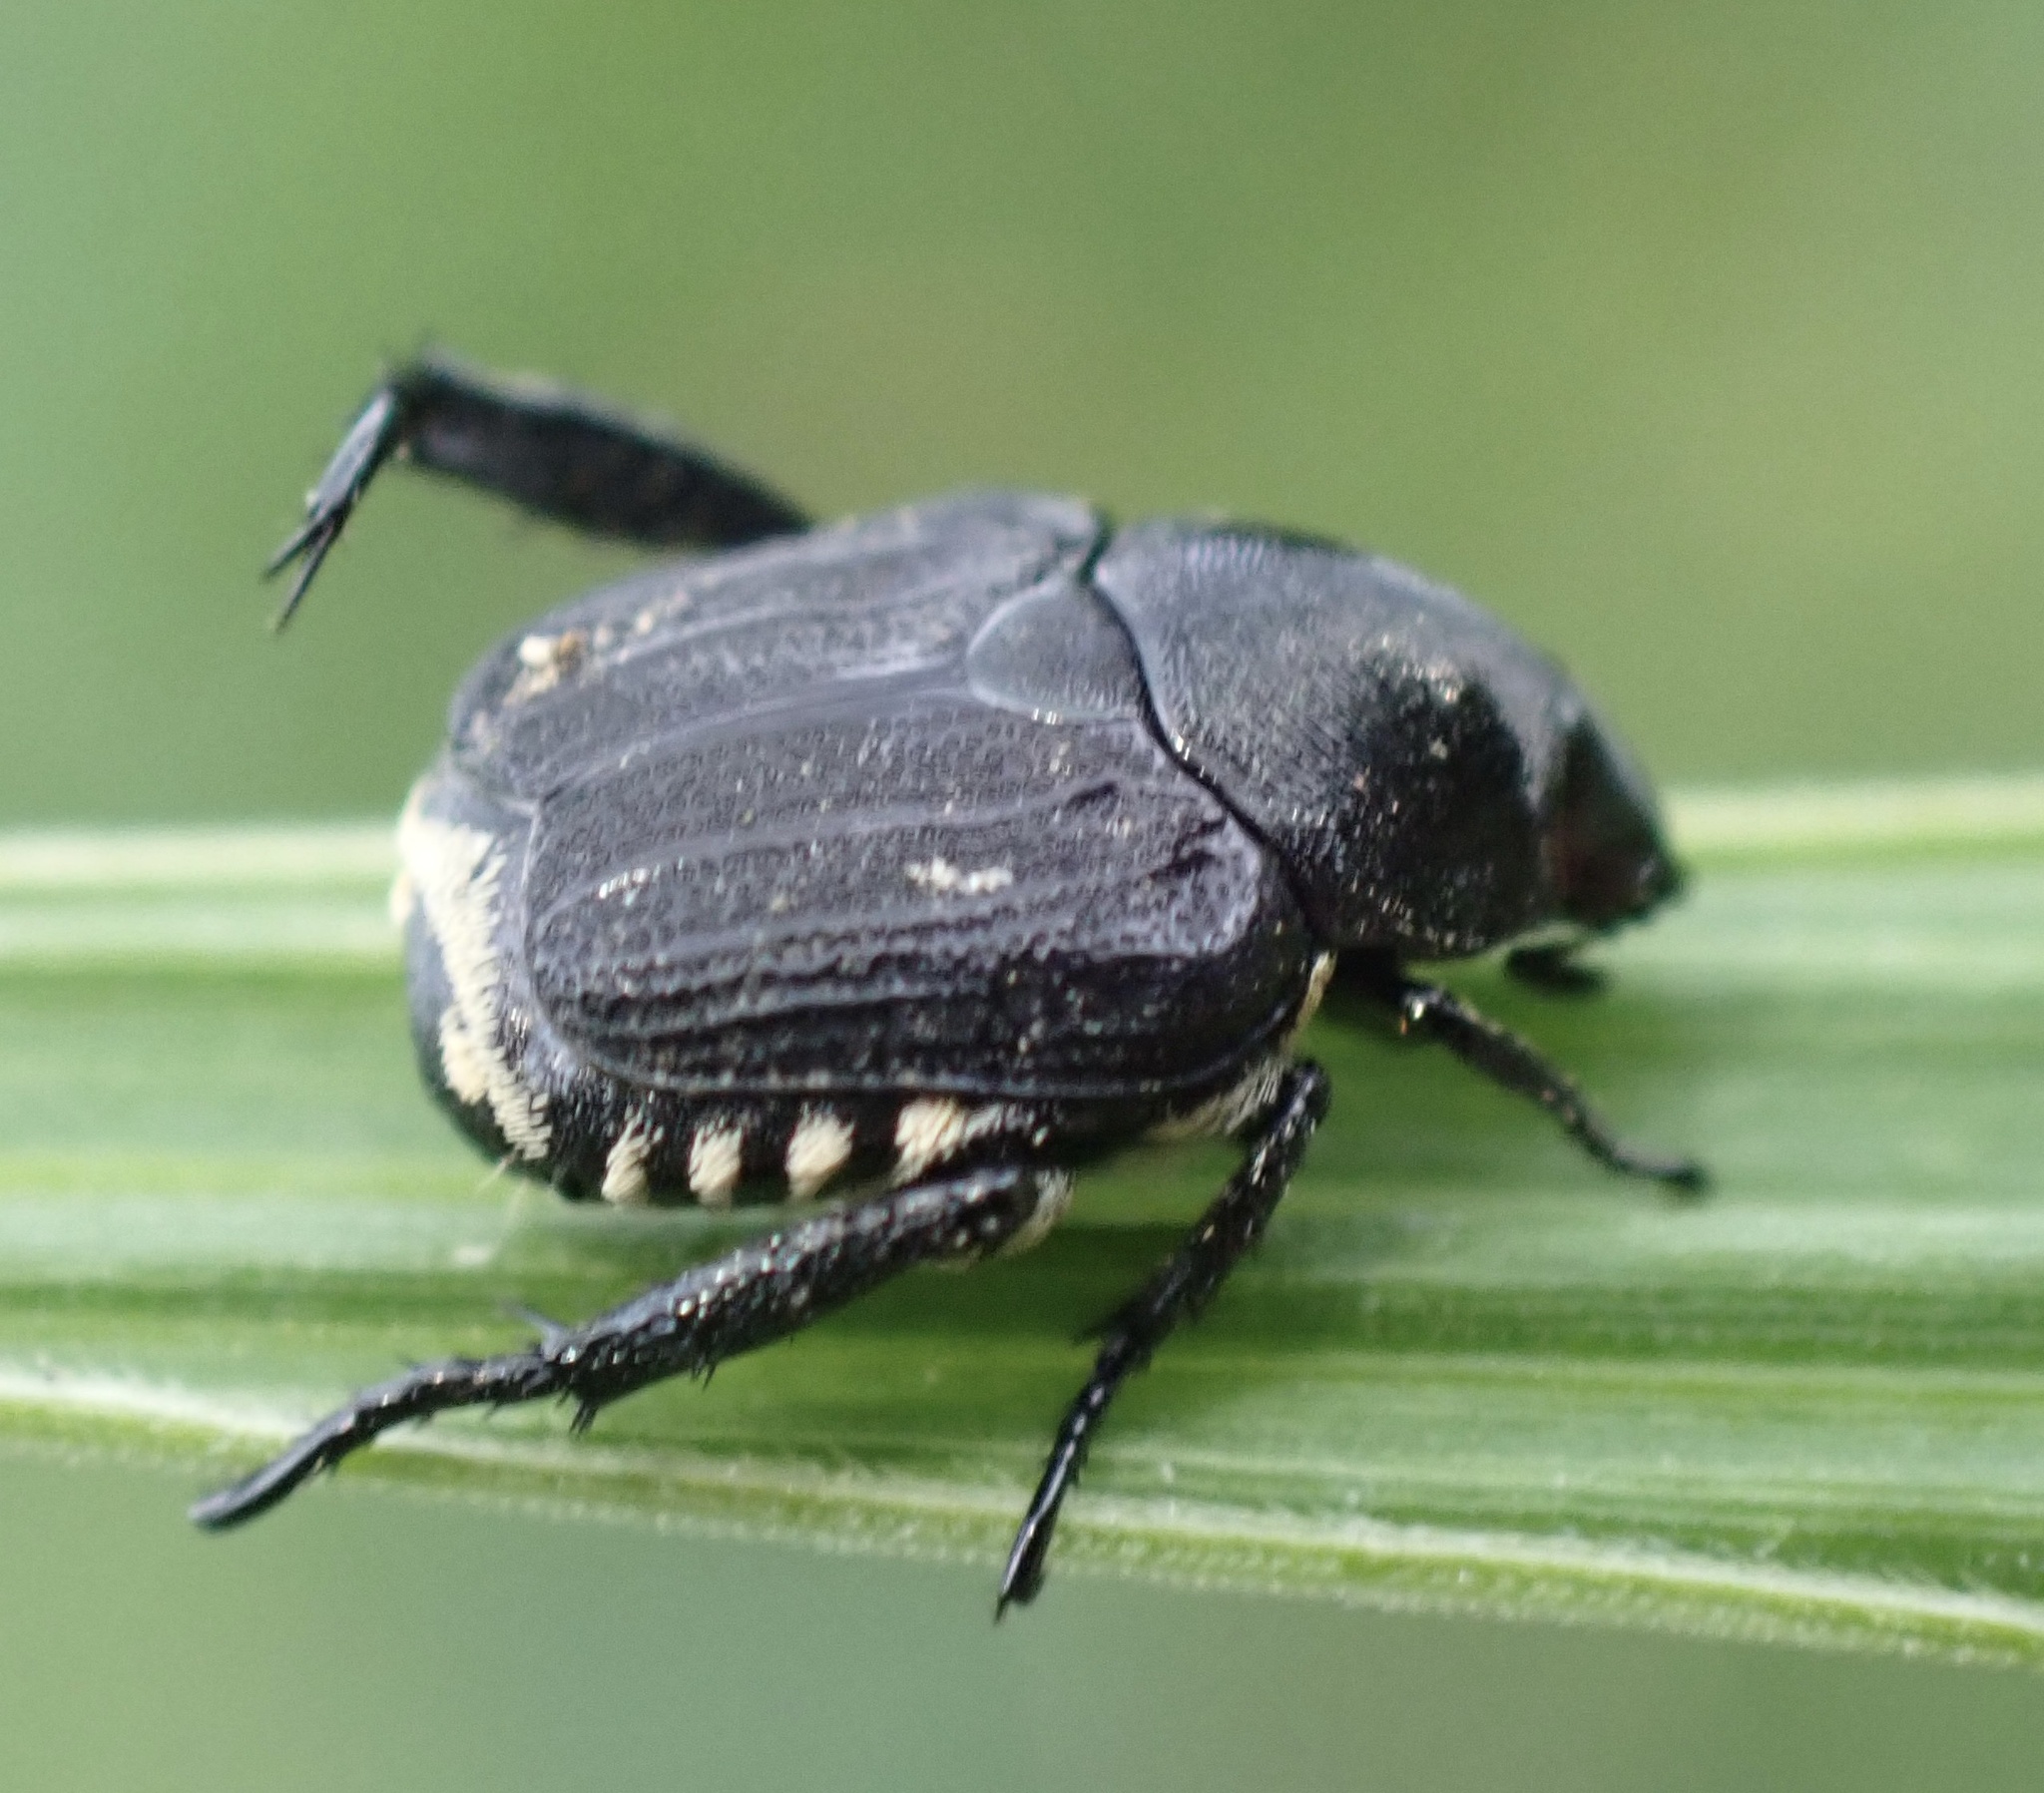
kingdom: Animalia
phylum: Arthropoda
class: Insecta
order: Coleoptera
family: Scarabaeidae
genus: Malaia
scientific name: Malaia nigrita
